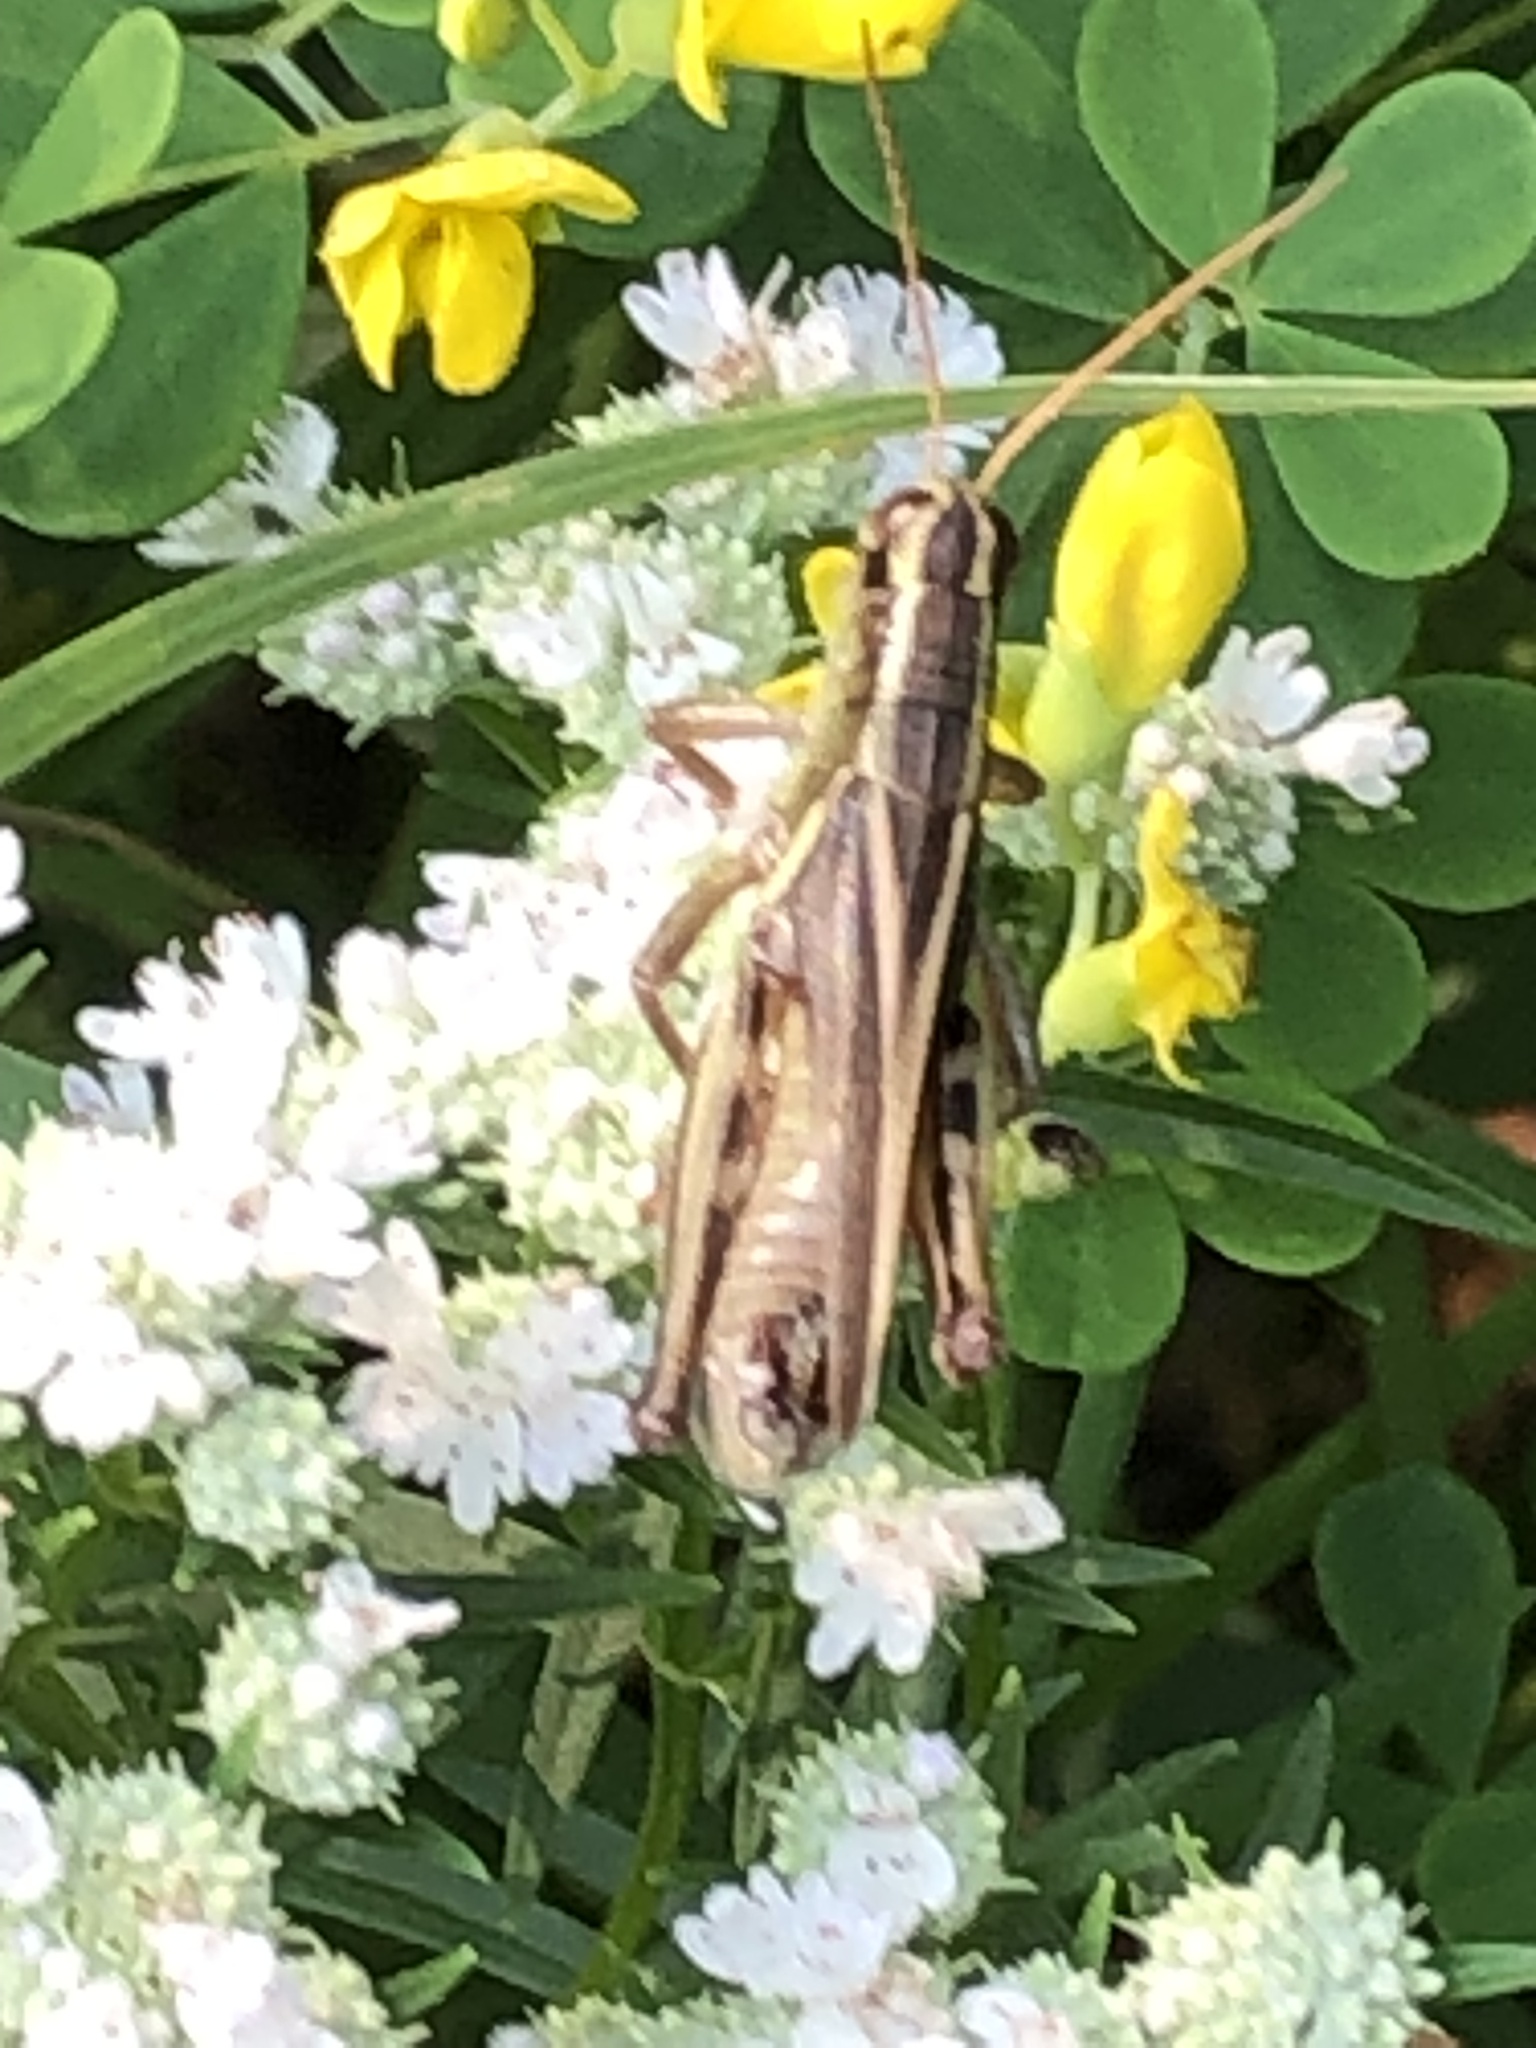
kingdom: Animalia
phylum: Arthropoda
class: Insecta
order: Orthoptera
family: Acrididae
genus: Melanoplus
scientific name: Melanoplus bivittatus
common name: Two-striped grasshopper
